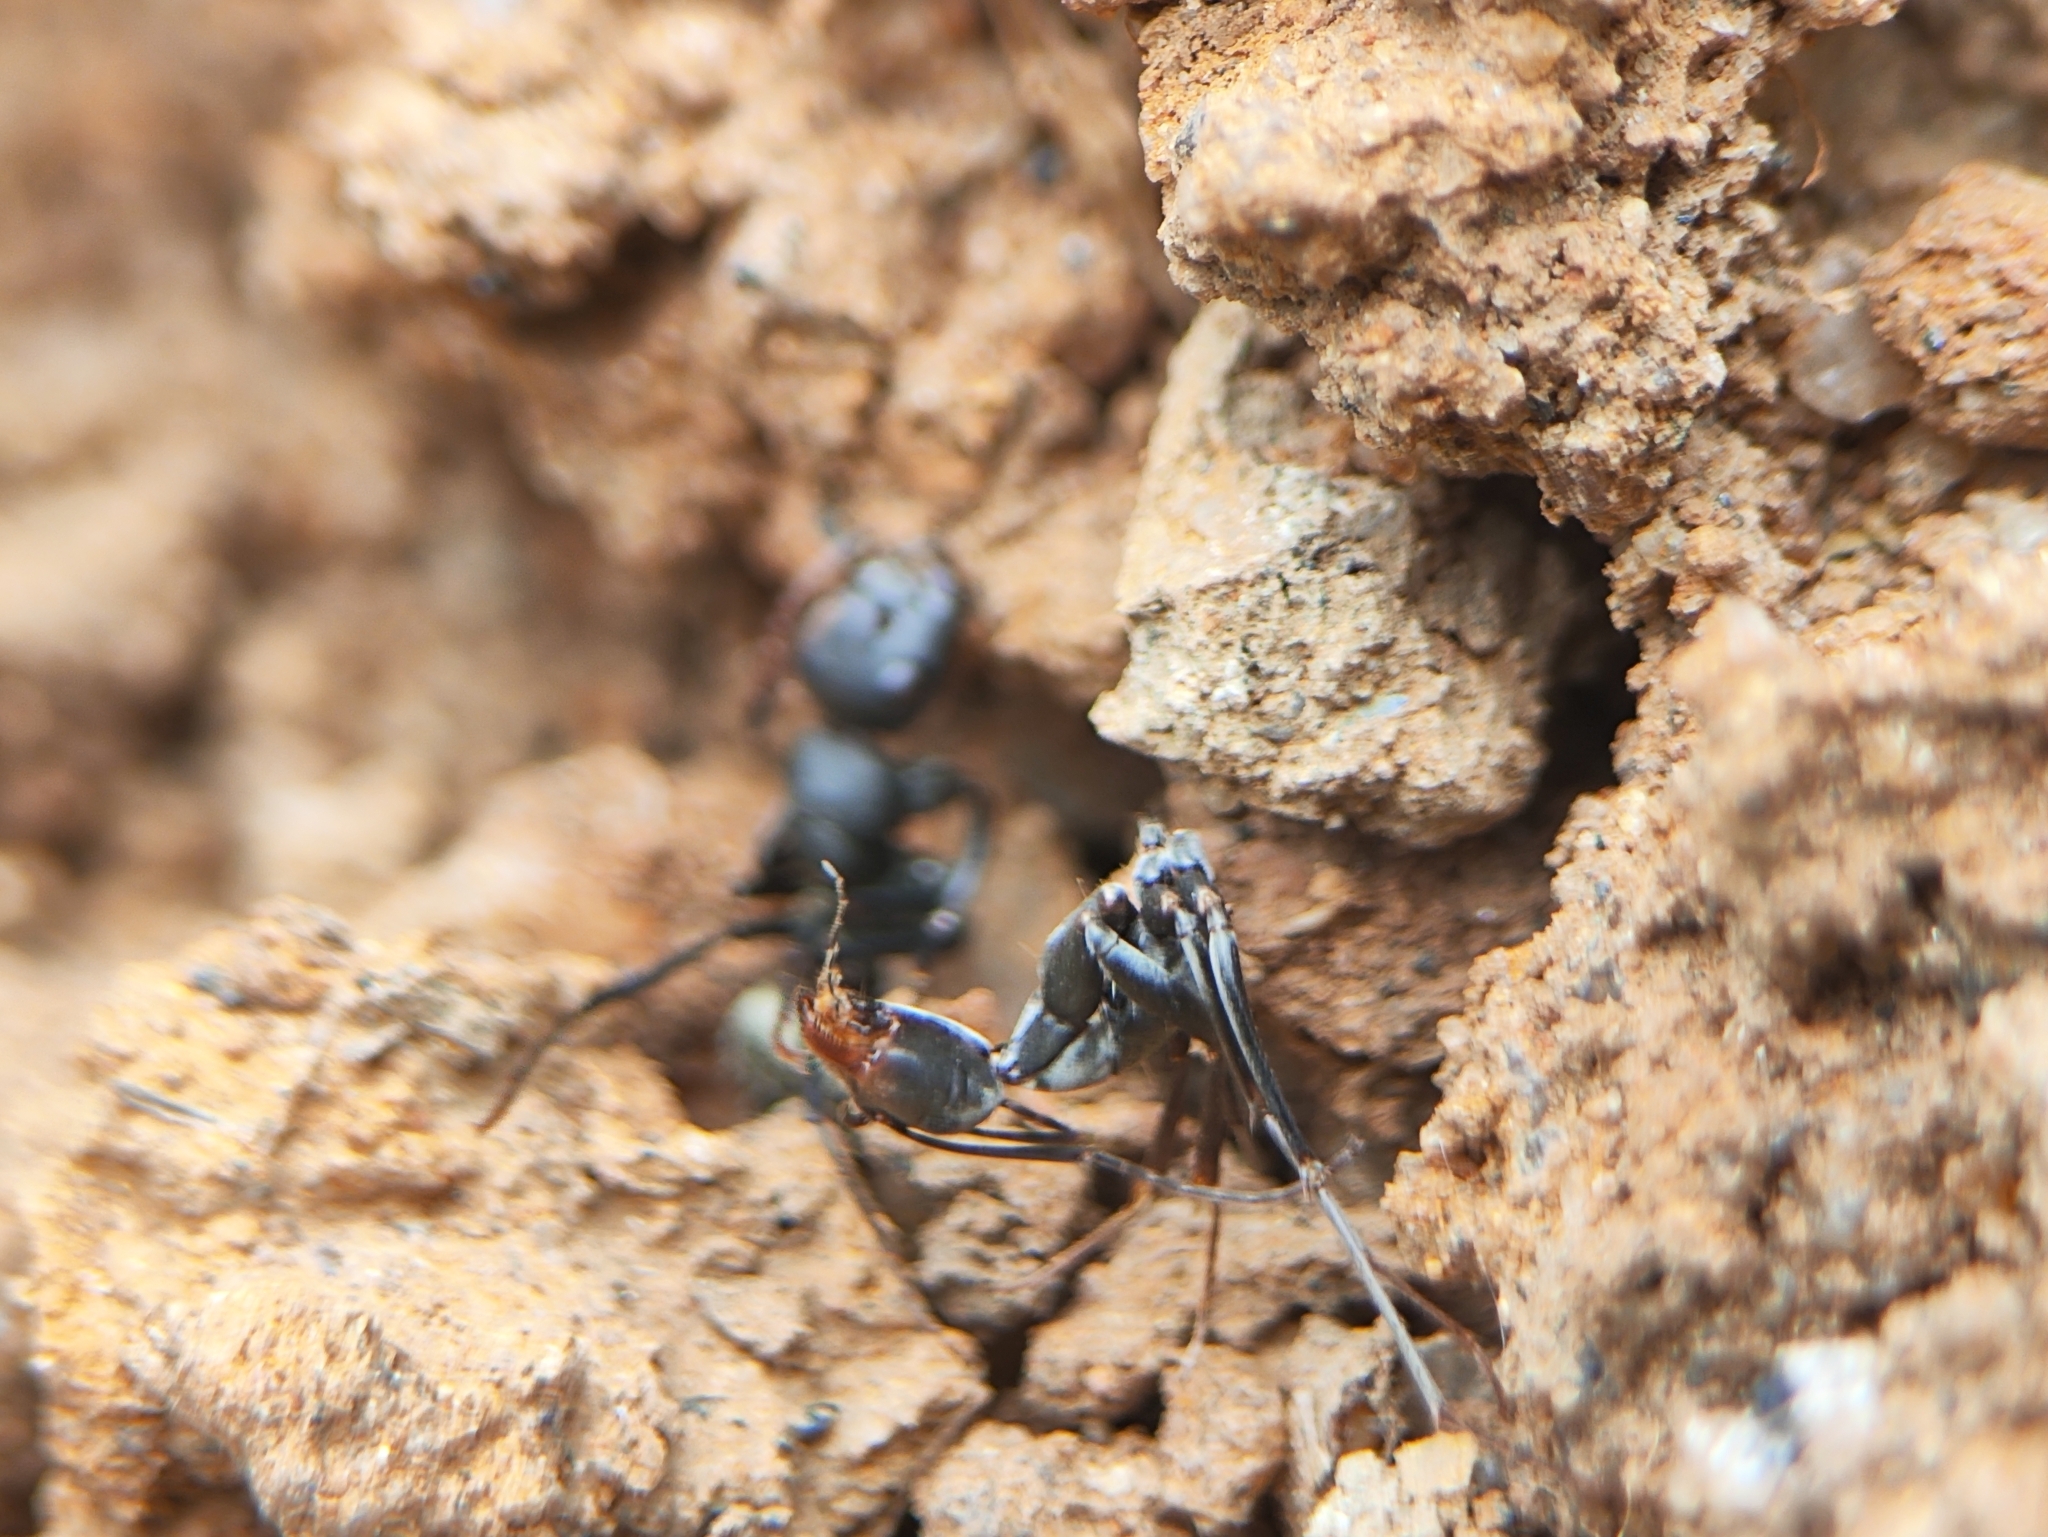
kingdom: Animalia
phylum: Arthropoda
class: Insecta
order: Hymenoptera
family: Formicidae
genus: Camponotus
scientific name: Camponotus sericeus
